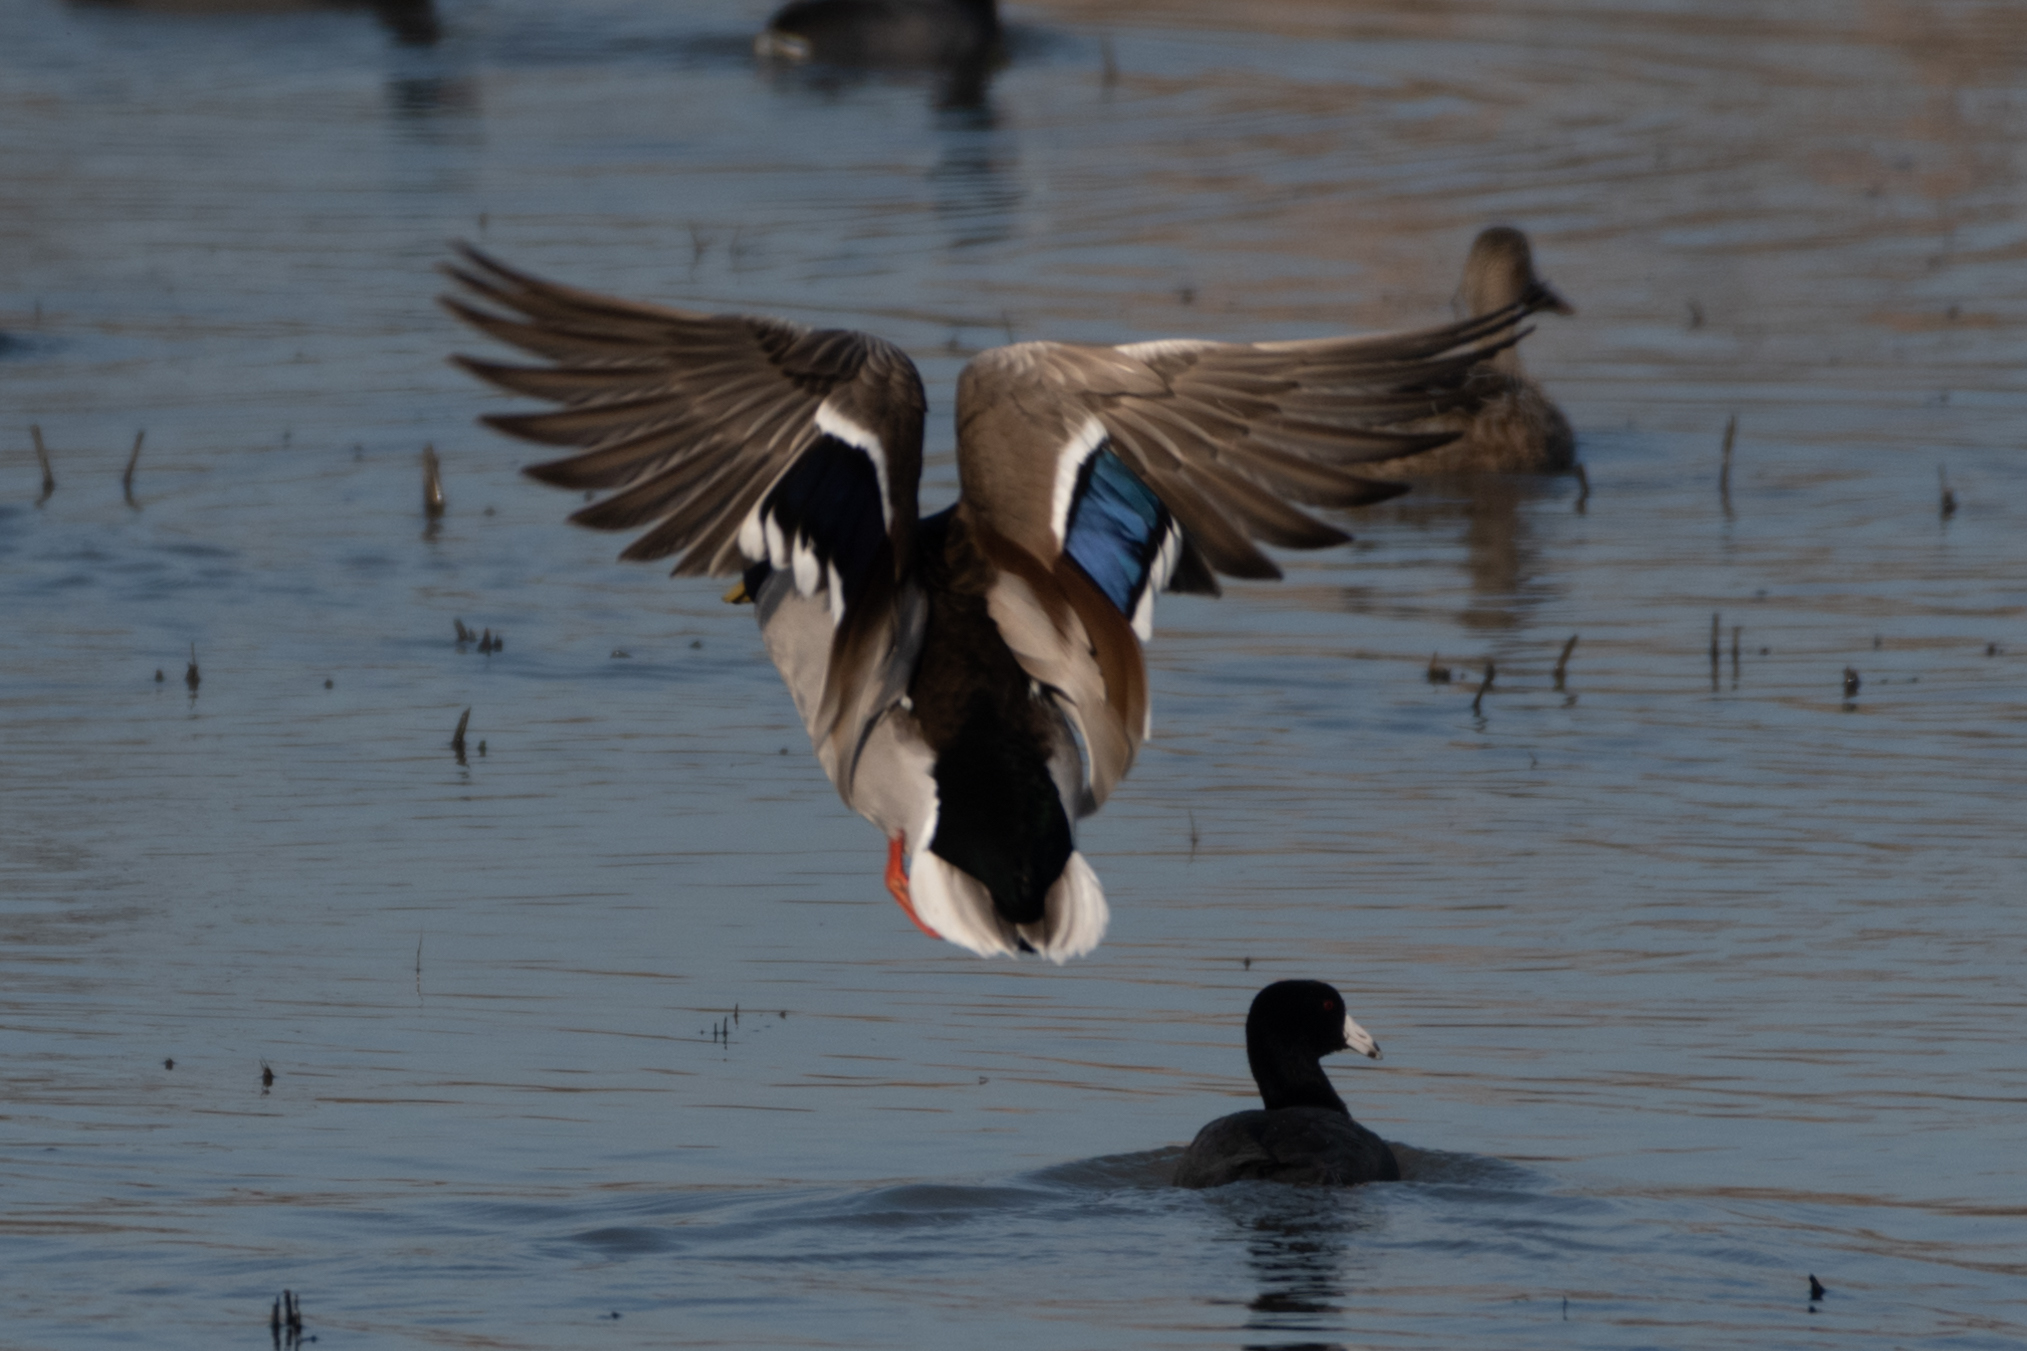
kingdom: Animalia
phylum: Chordata
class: Aves
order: Anseriformes
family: Anatidae
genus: Anas
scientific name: Anas platyrhynchos
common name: Mallard
